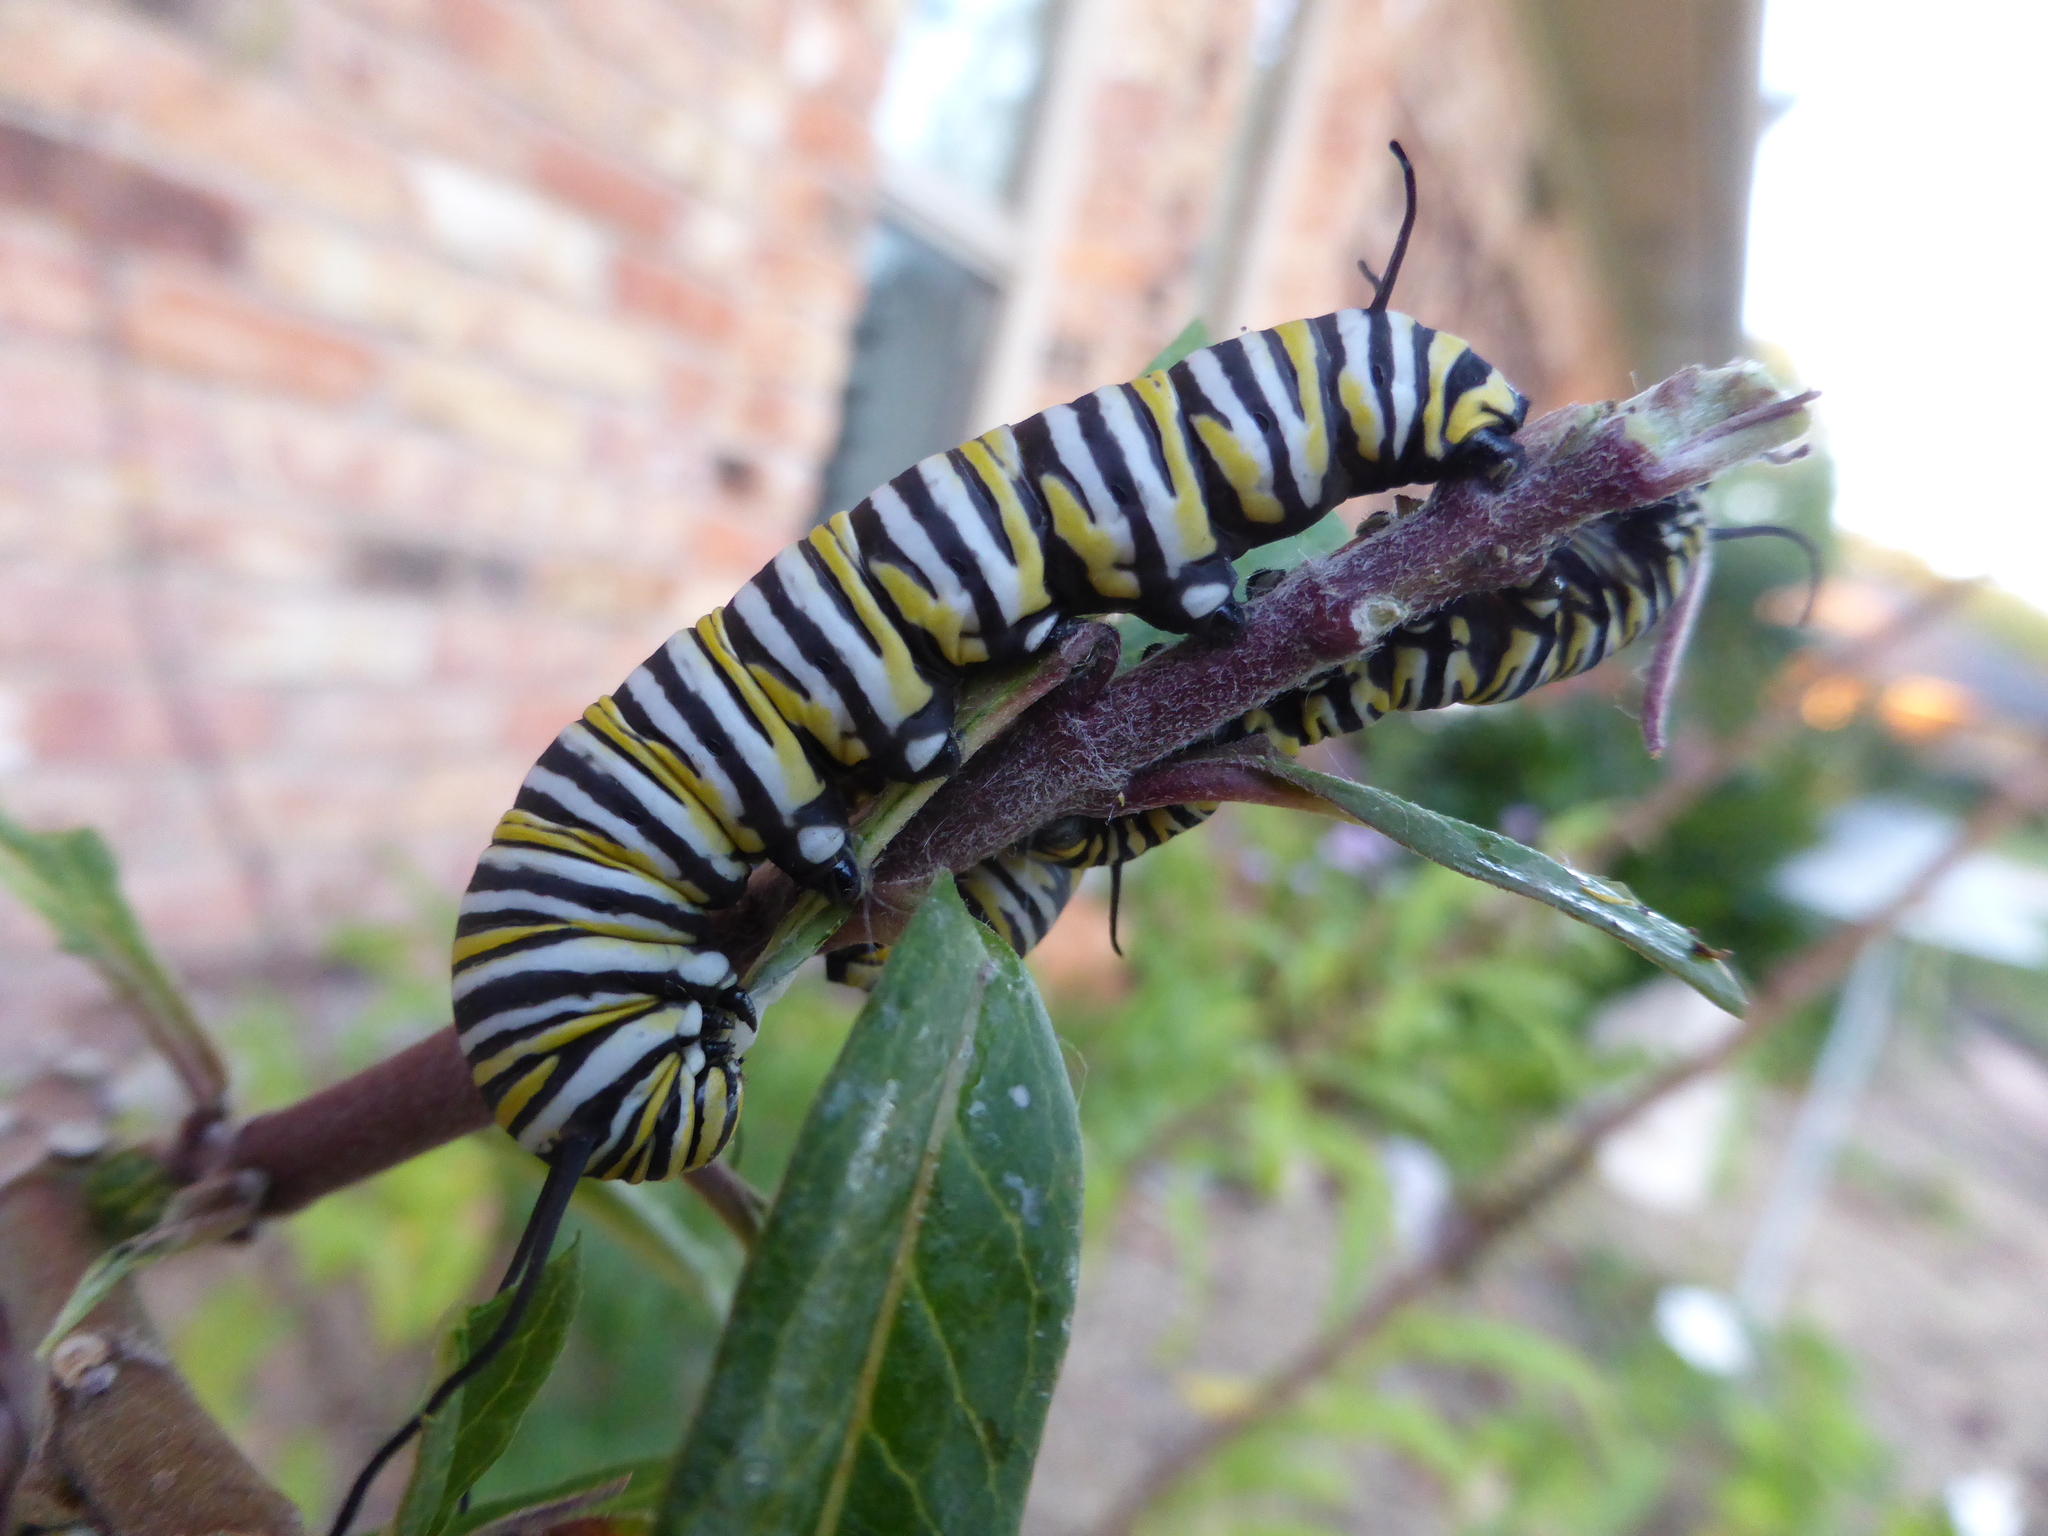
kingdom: Animalia
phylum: Arthropoda
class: Insecta
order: Lepidoptera
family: Nymphalidae
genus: Danaus
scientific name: Danaus plexippus
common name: Monarch
